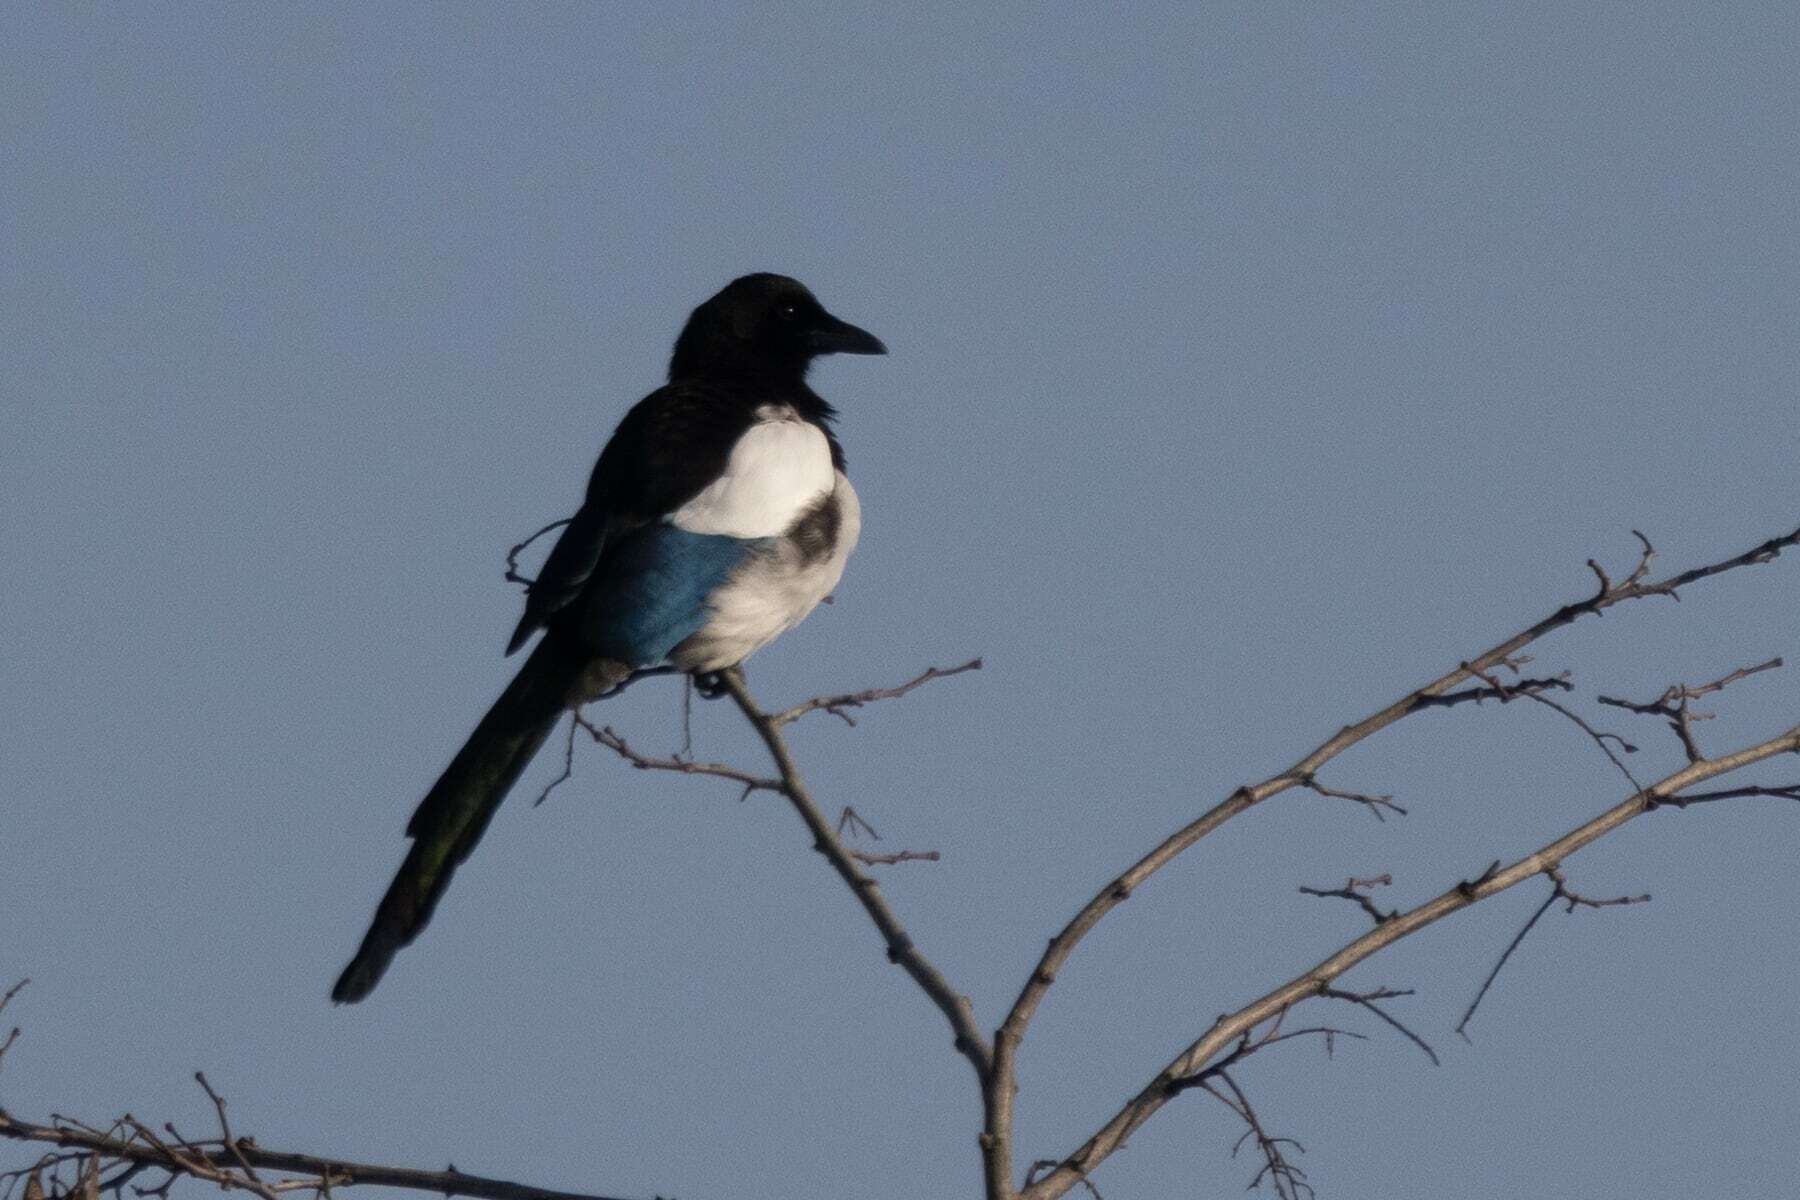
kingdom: Animalia
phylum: Chordata
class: Aves
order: Passeriformes
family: Corvidae
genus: Pica
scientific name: Pica pica
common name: Eurasian magpie
